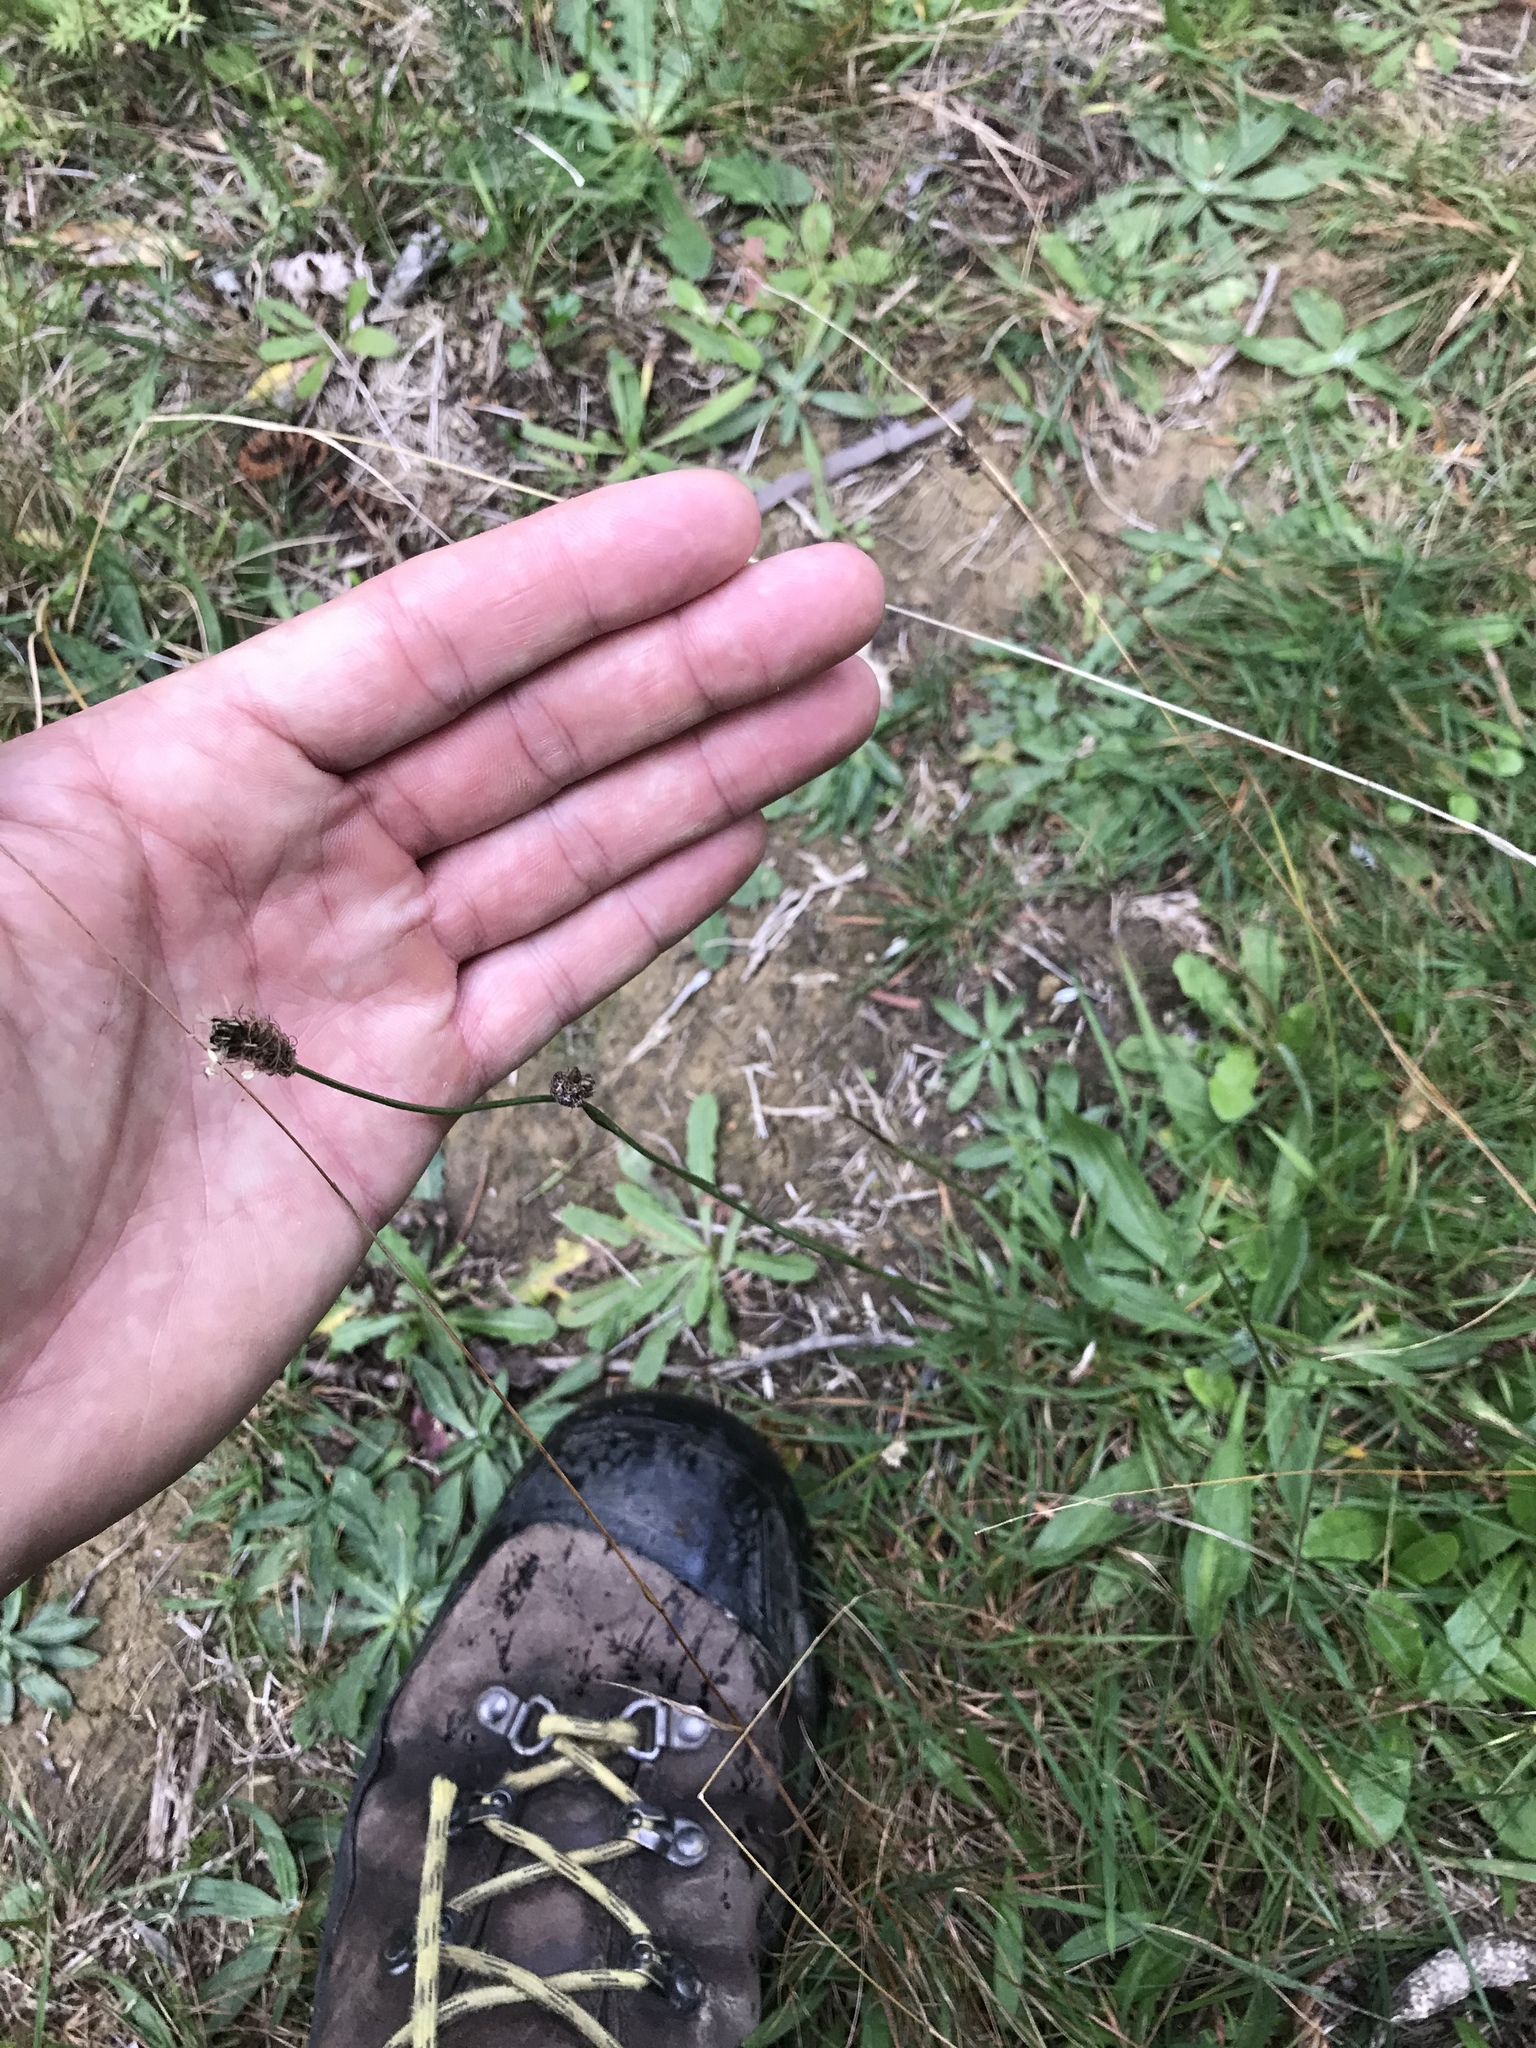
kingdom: Plantae
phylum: Tracheophyta
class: Magnoliopsida
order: Lamiales
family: Plantaginaceae
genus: Plantago
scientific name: Plantago lanceolata
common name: Ribwort plantain
